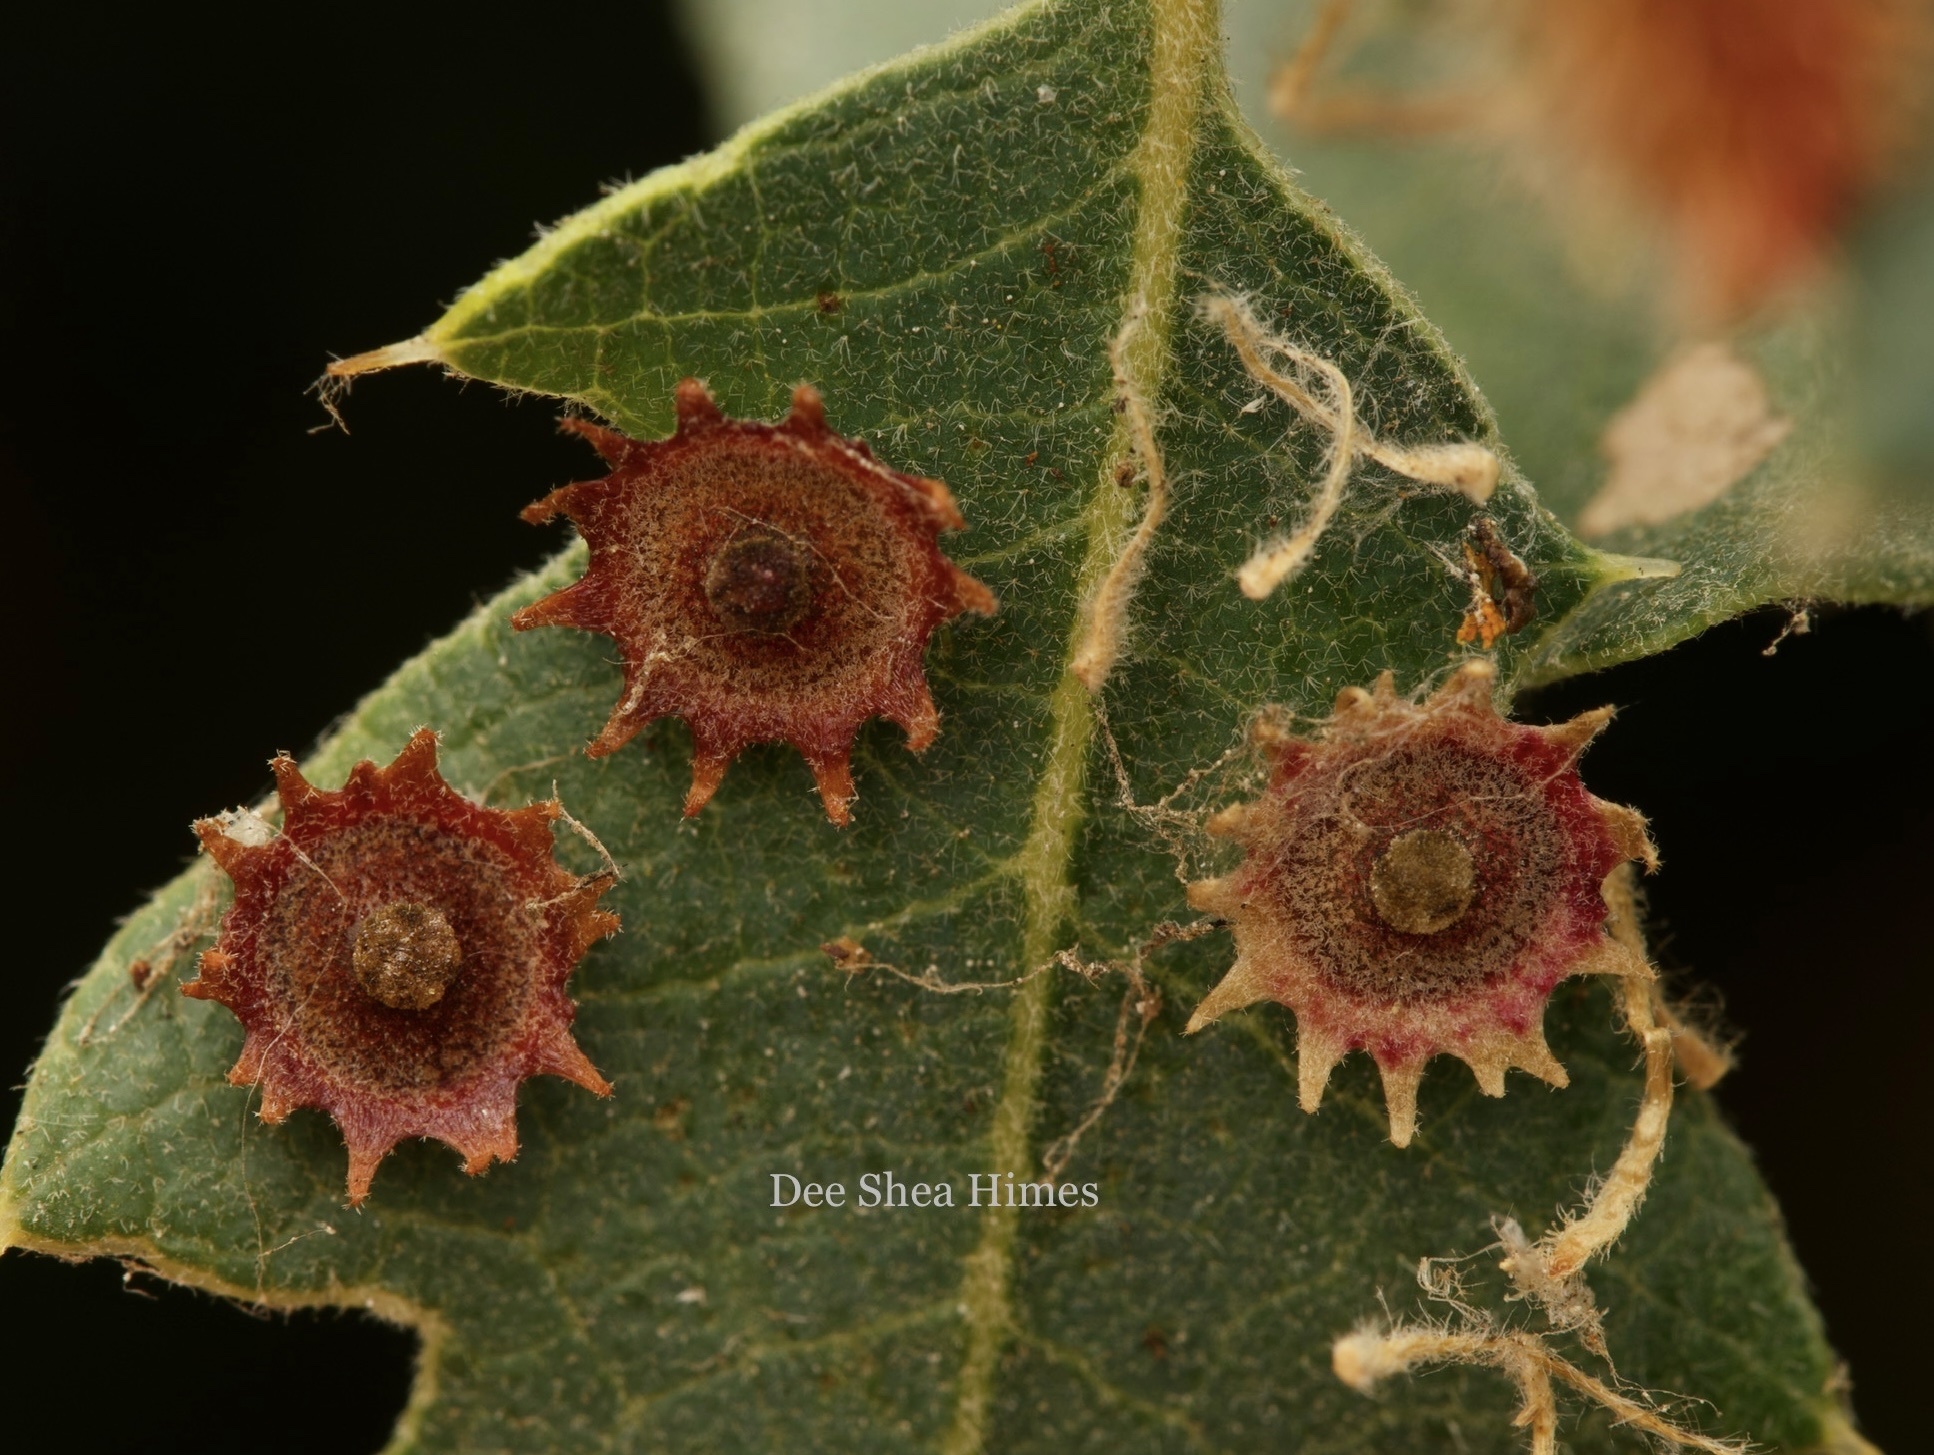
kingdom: Animalia
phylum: Arthropoda
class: Insecta
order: Hymenoptera
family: Cynipidae
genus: Andricus
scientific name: Andricus
